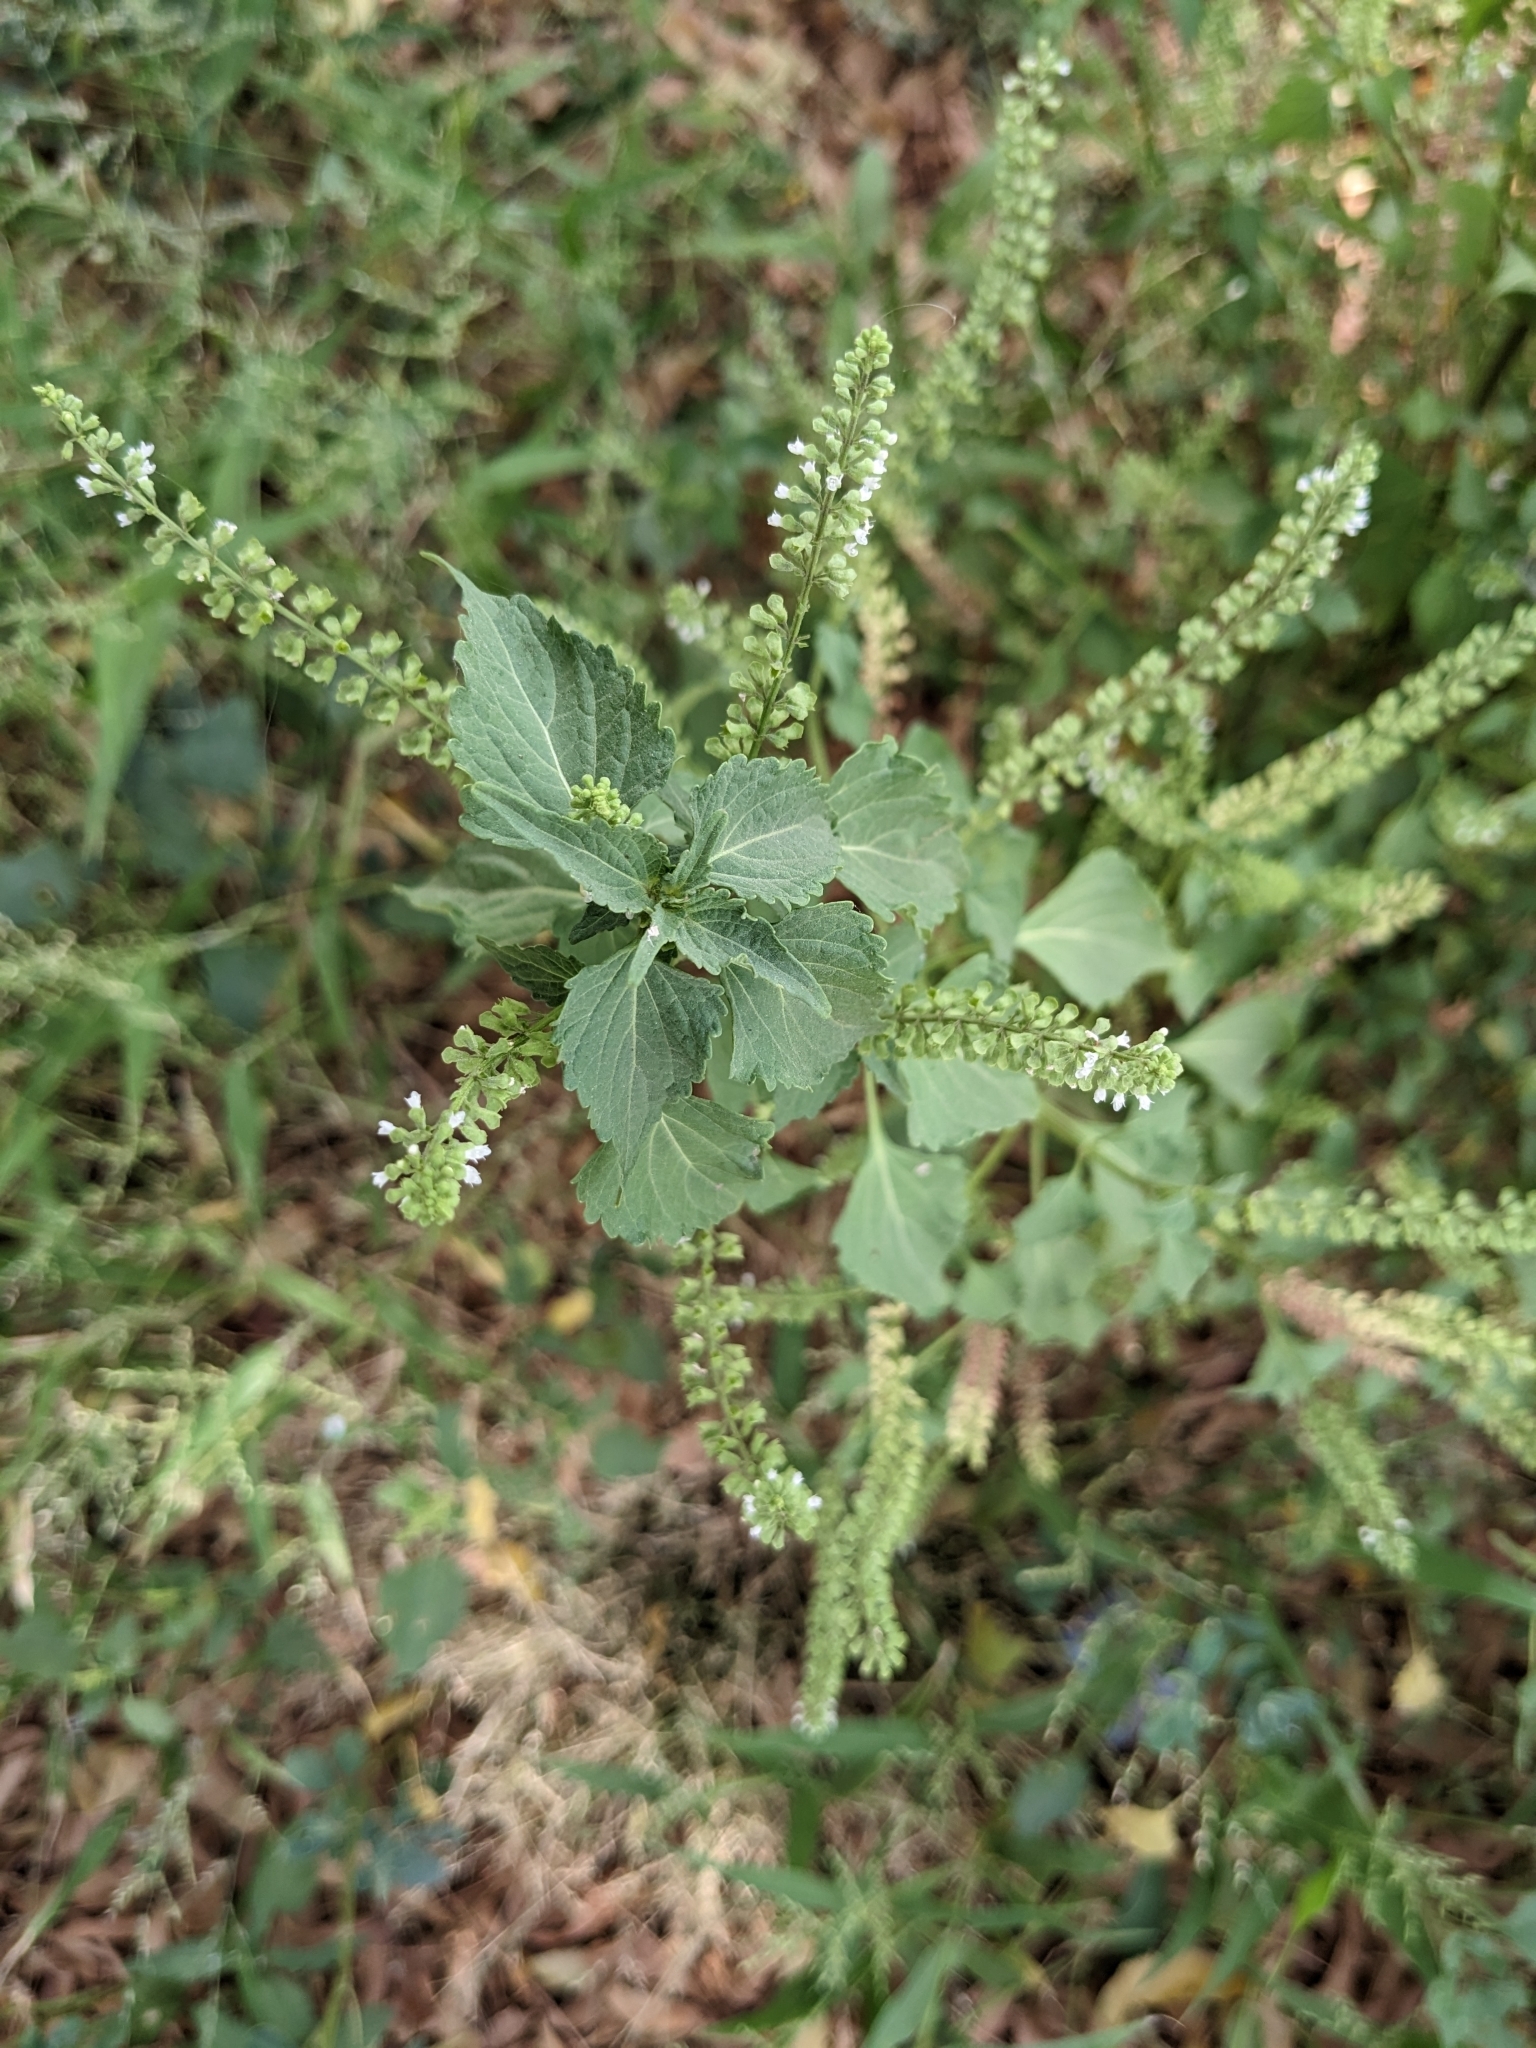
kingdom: Plantae
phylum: Tracheophyta
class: Magnoliopsida
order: Lamiales
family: Lamiaceae
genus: Basilicum
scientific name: Basilicum polystachyon
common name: Musk-basil
